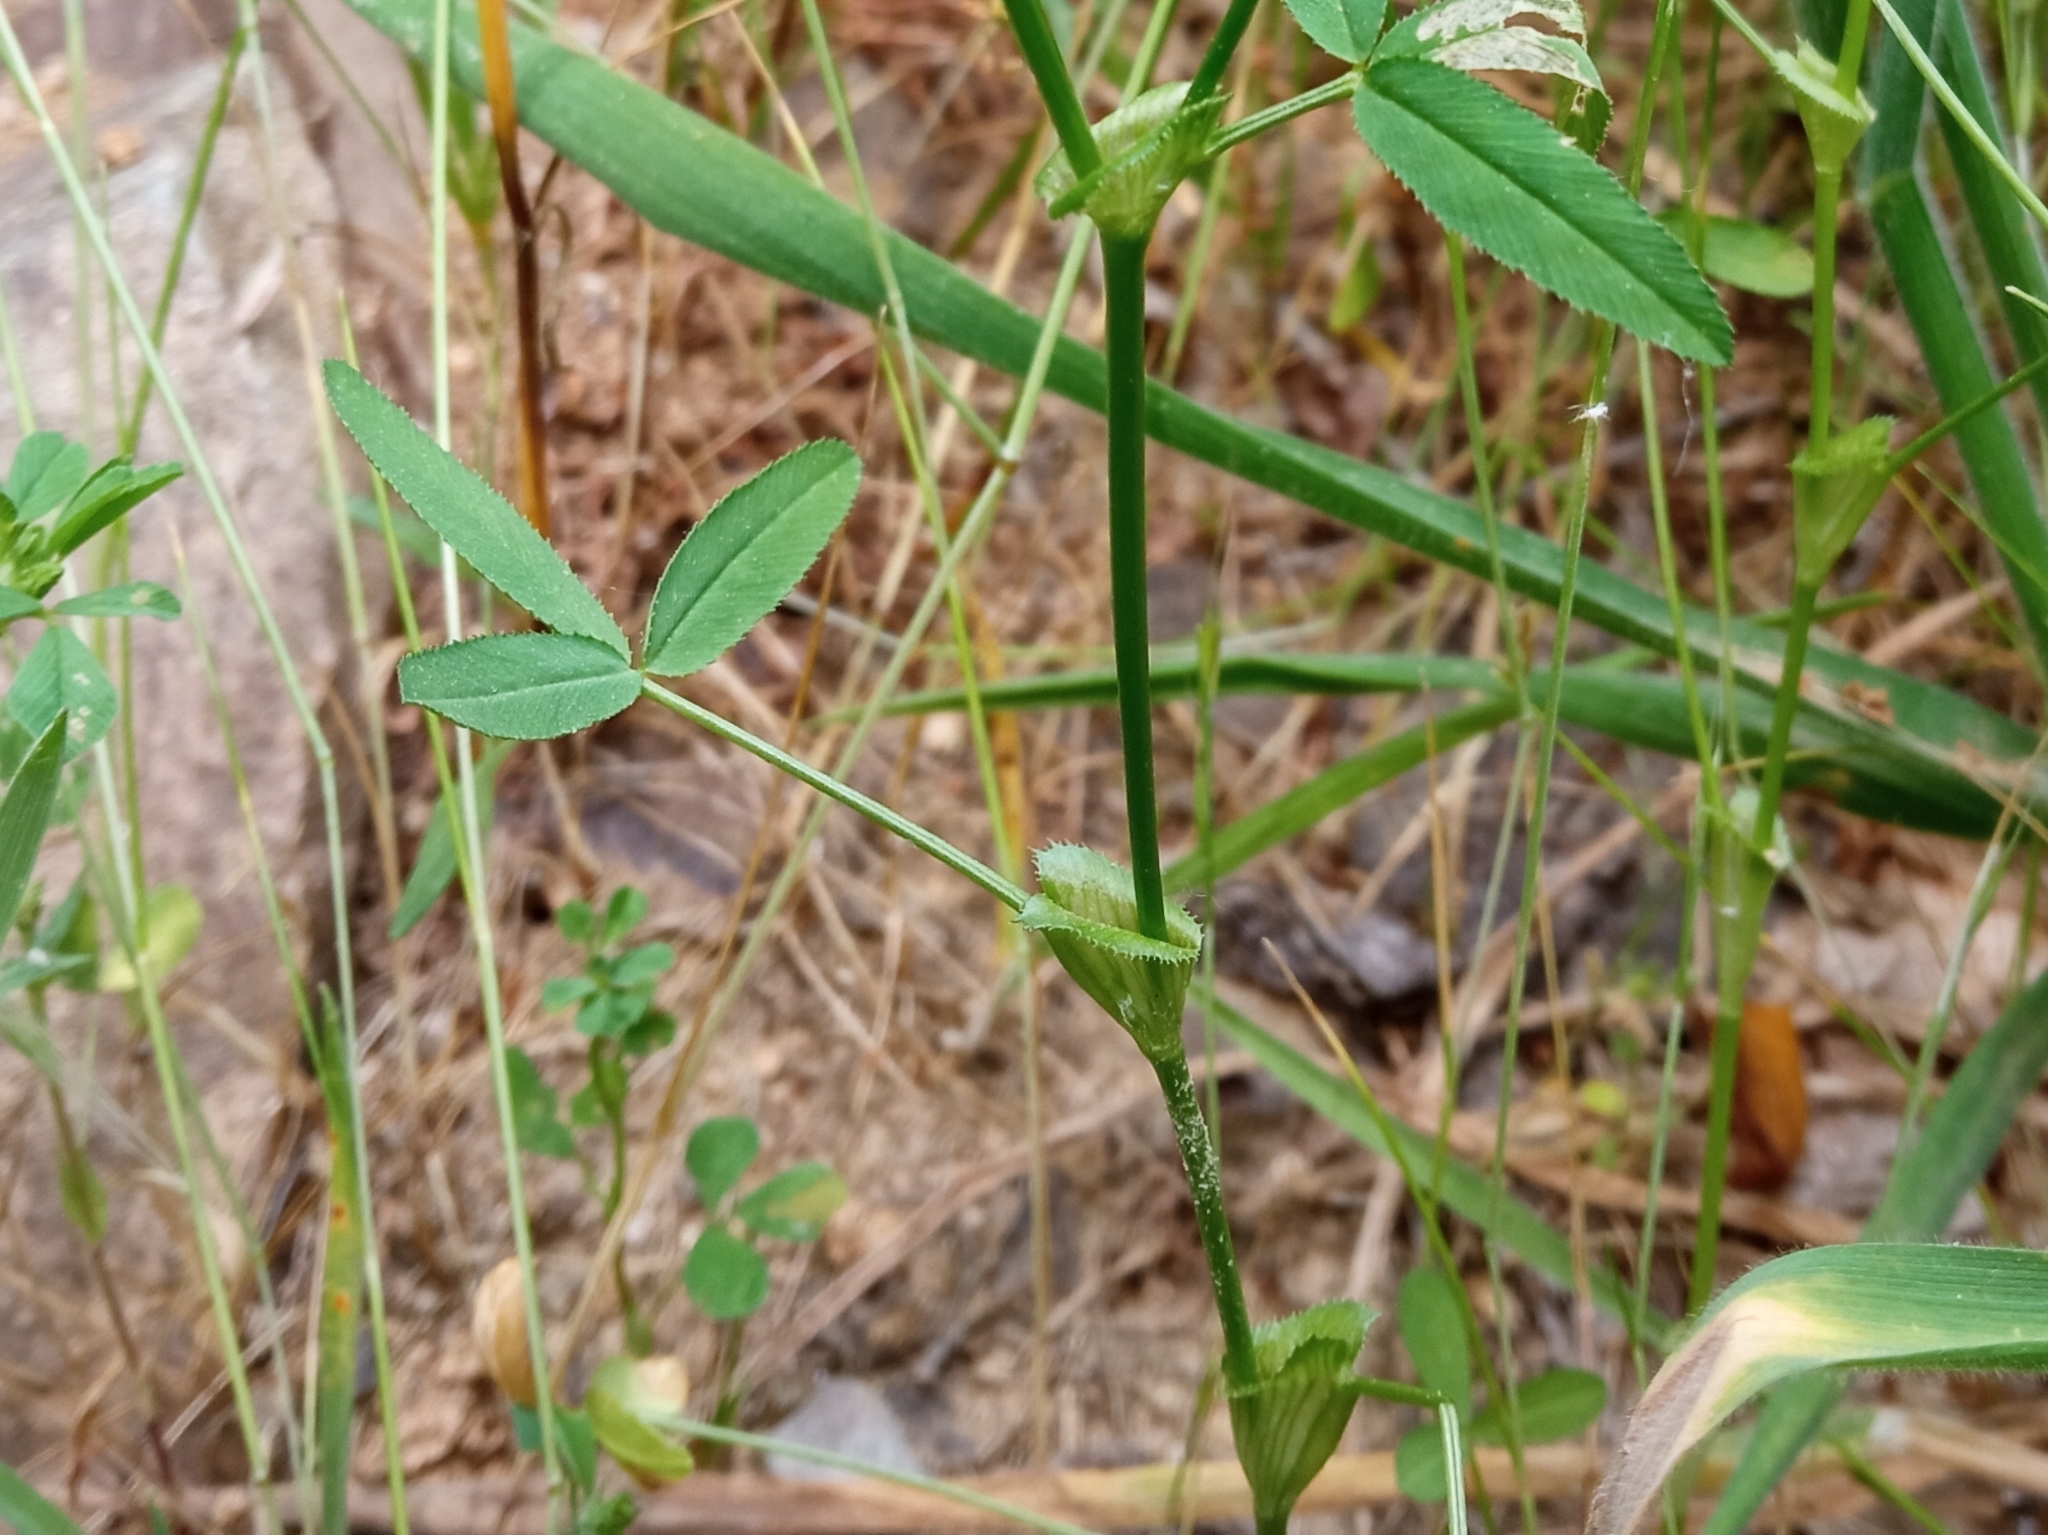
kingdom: Plantae
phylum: Tracheophyta
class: Magnoliopsida
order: Fabales
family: Fabaceae
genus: Trifolium
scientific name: Trifolium strictum
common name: Upright clover
